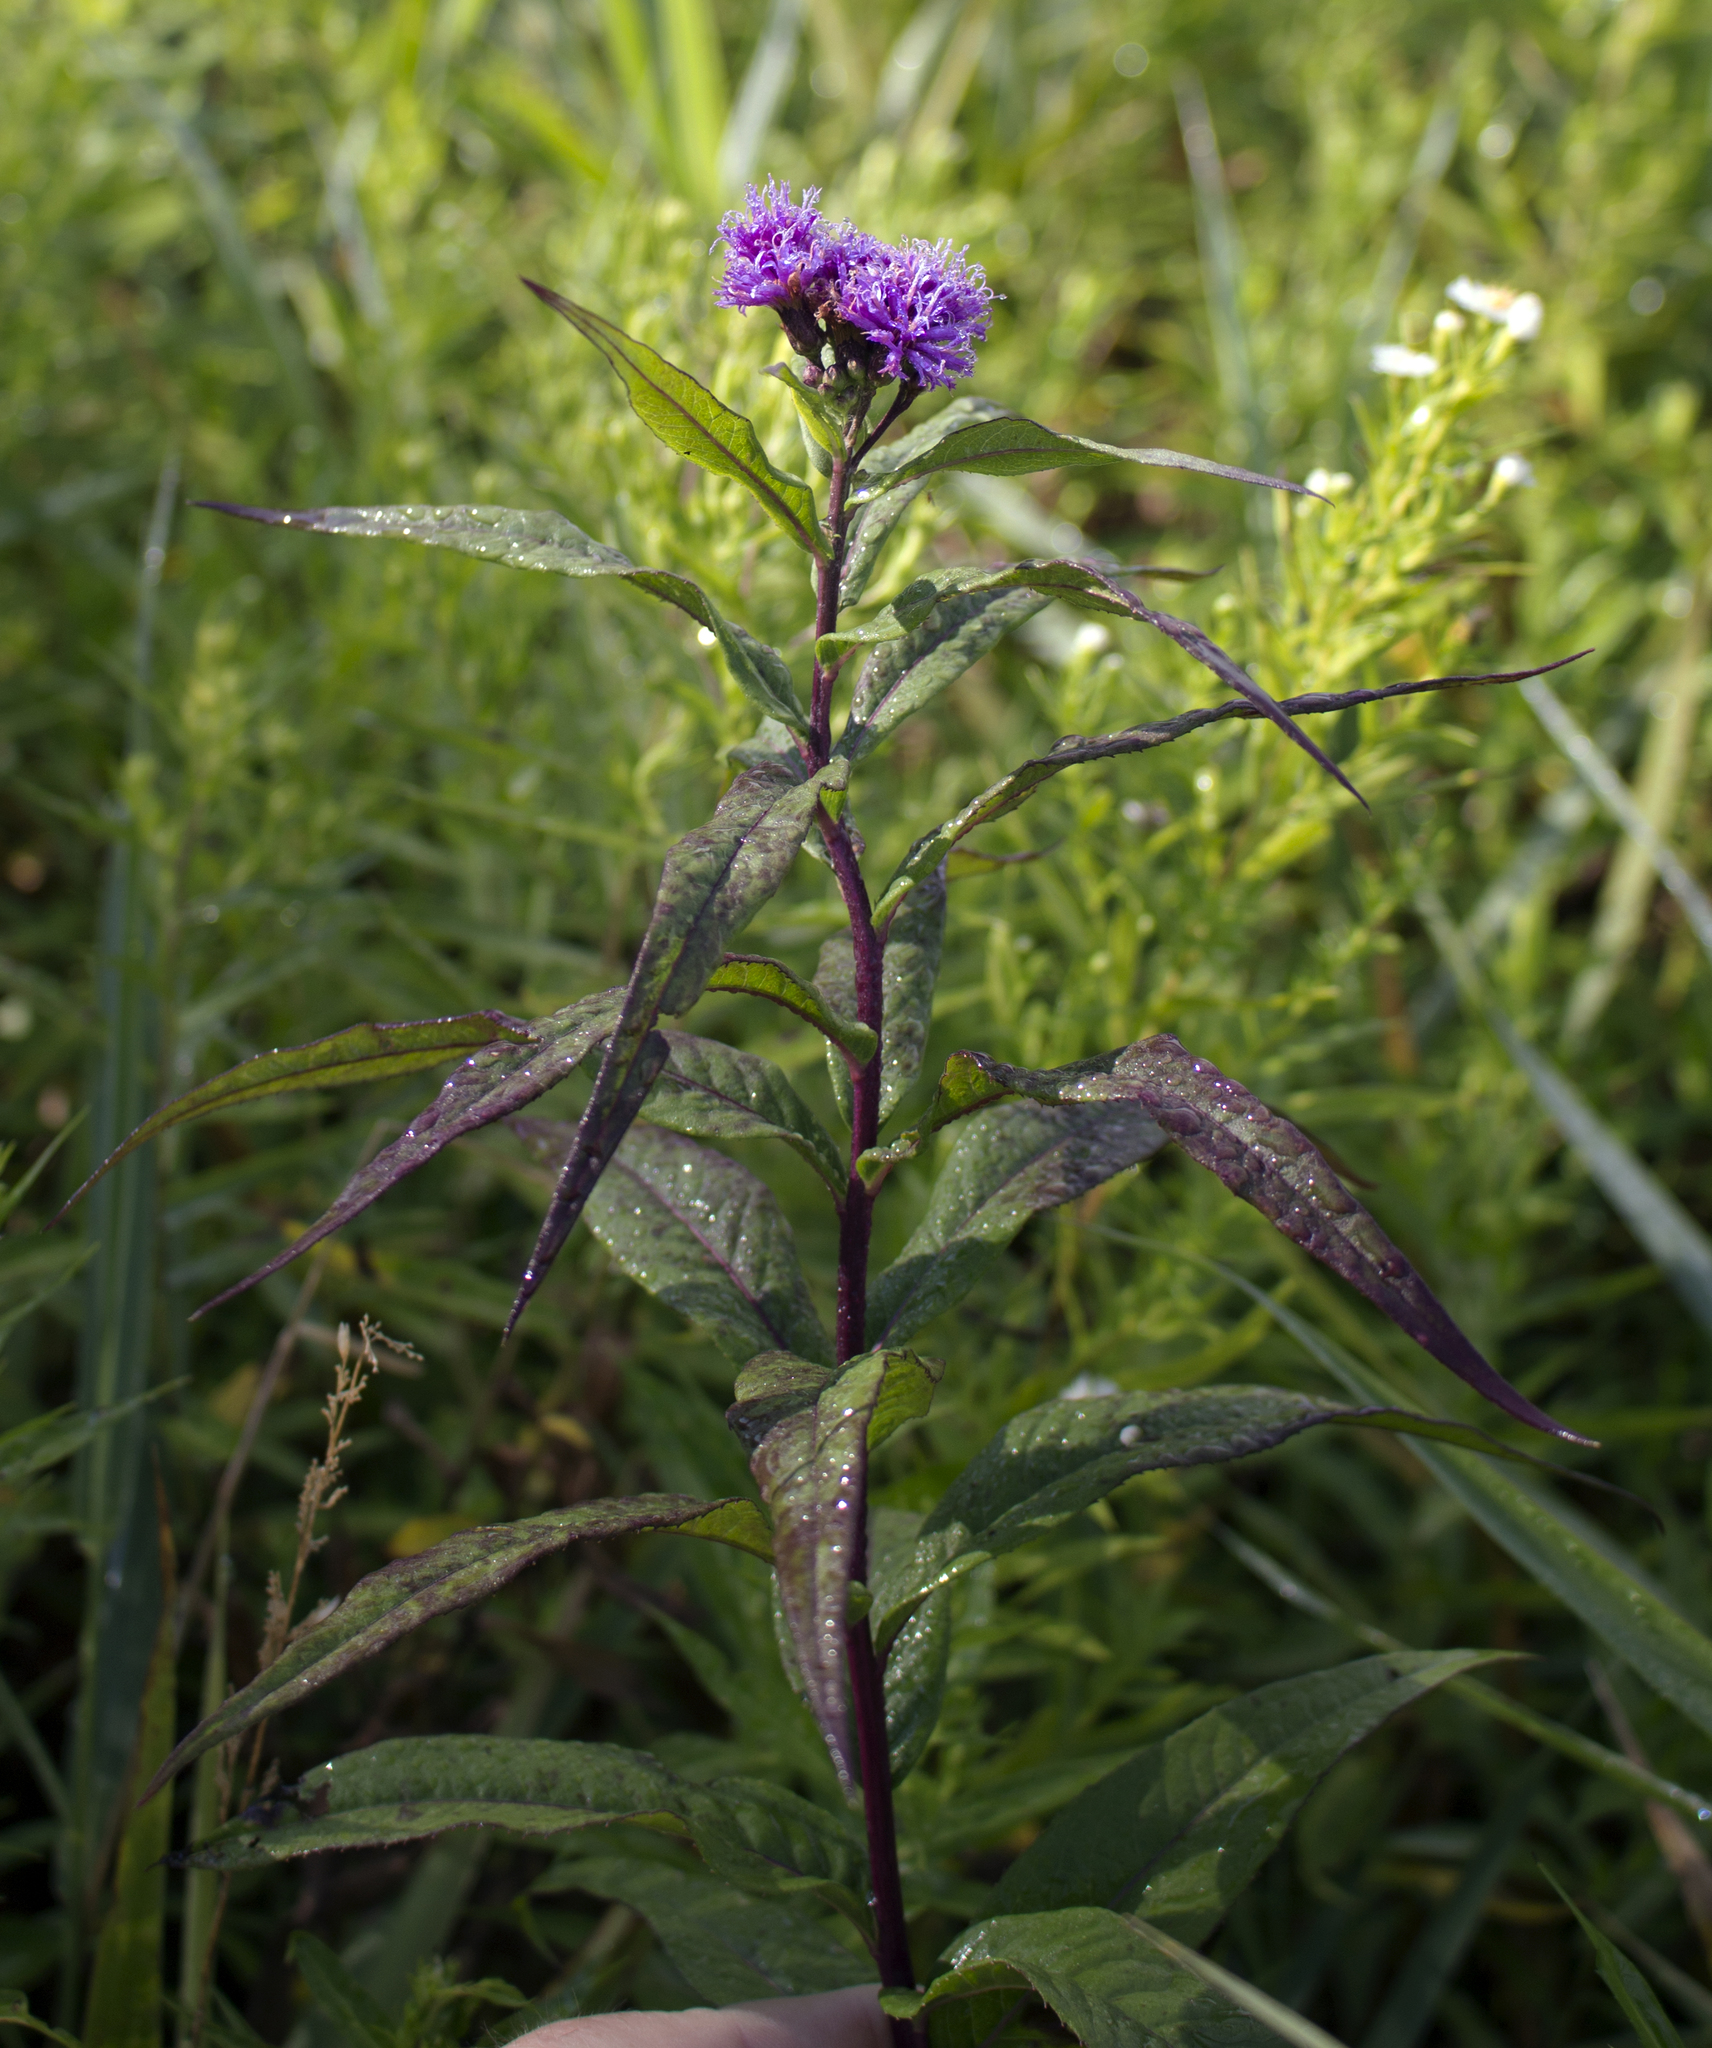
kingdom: Plantae
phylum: Tracheophyta
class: Magnoliopsida
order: Asterales
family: Asteraceae
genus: Vernonia
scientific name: Vernonia fasciculata
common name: Fascicled ironweed
